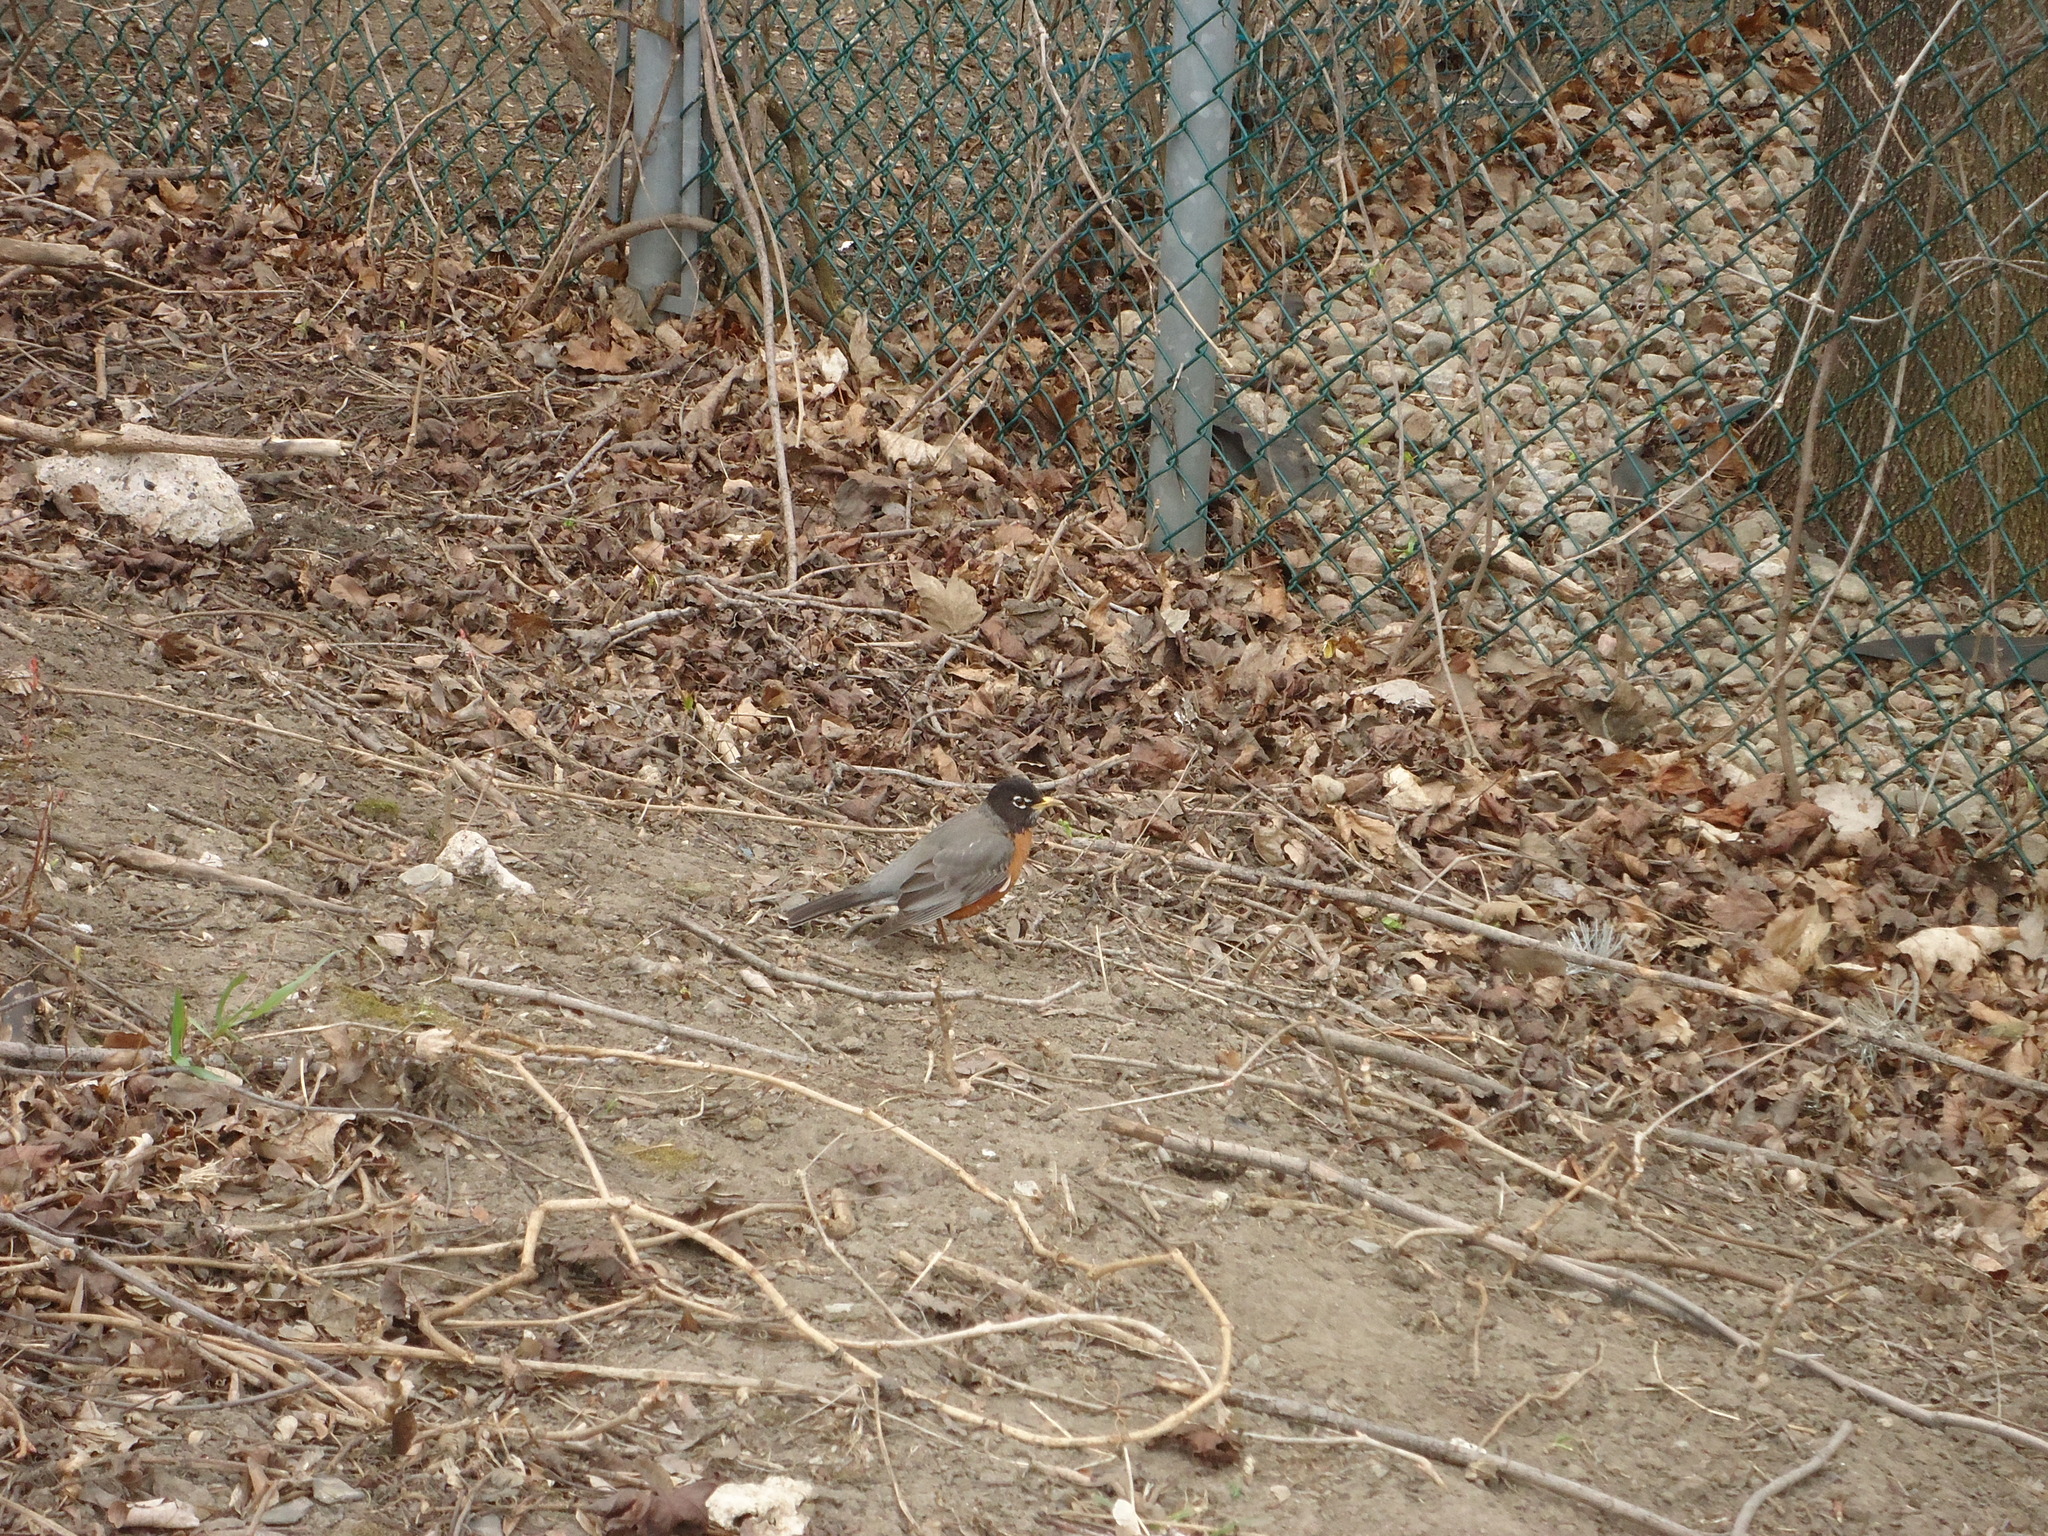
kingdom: Animalia
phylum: Chordata
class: Aves
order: Passeriformes
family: Turdidae
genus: Turdus
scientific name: Turdus migratorius
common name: American robin
